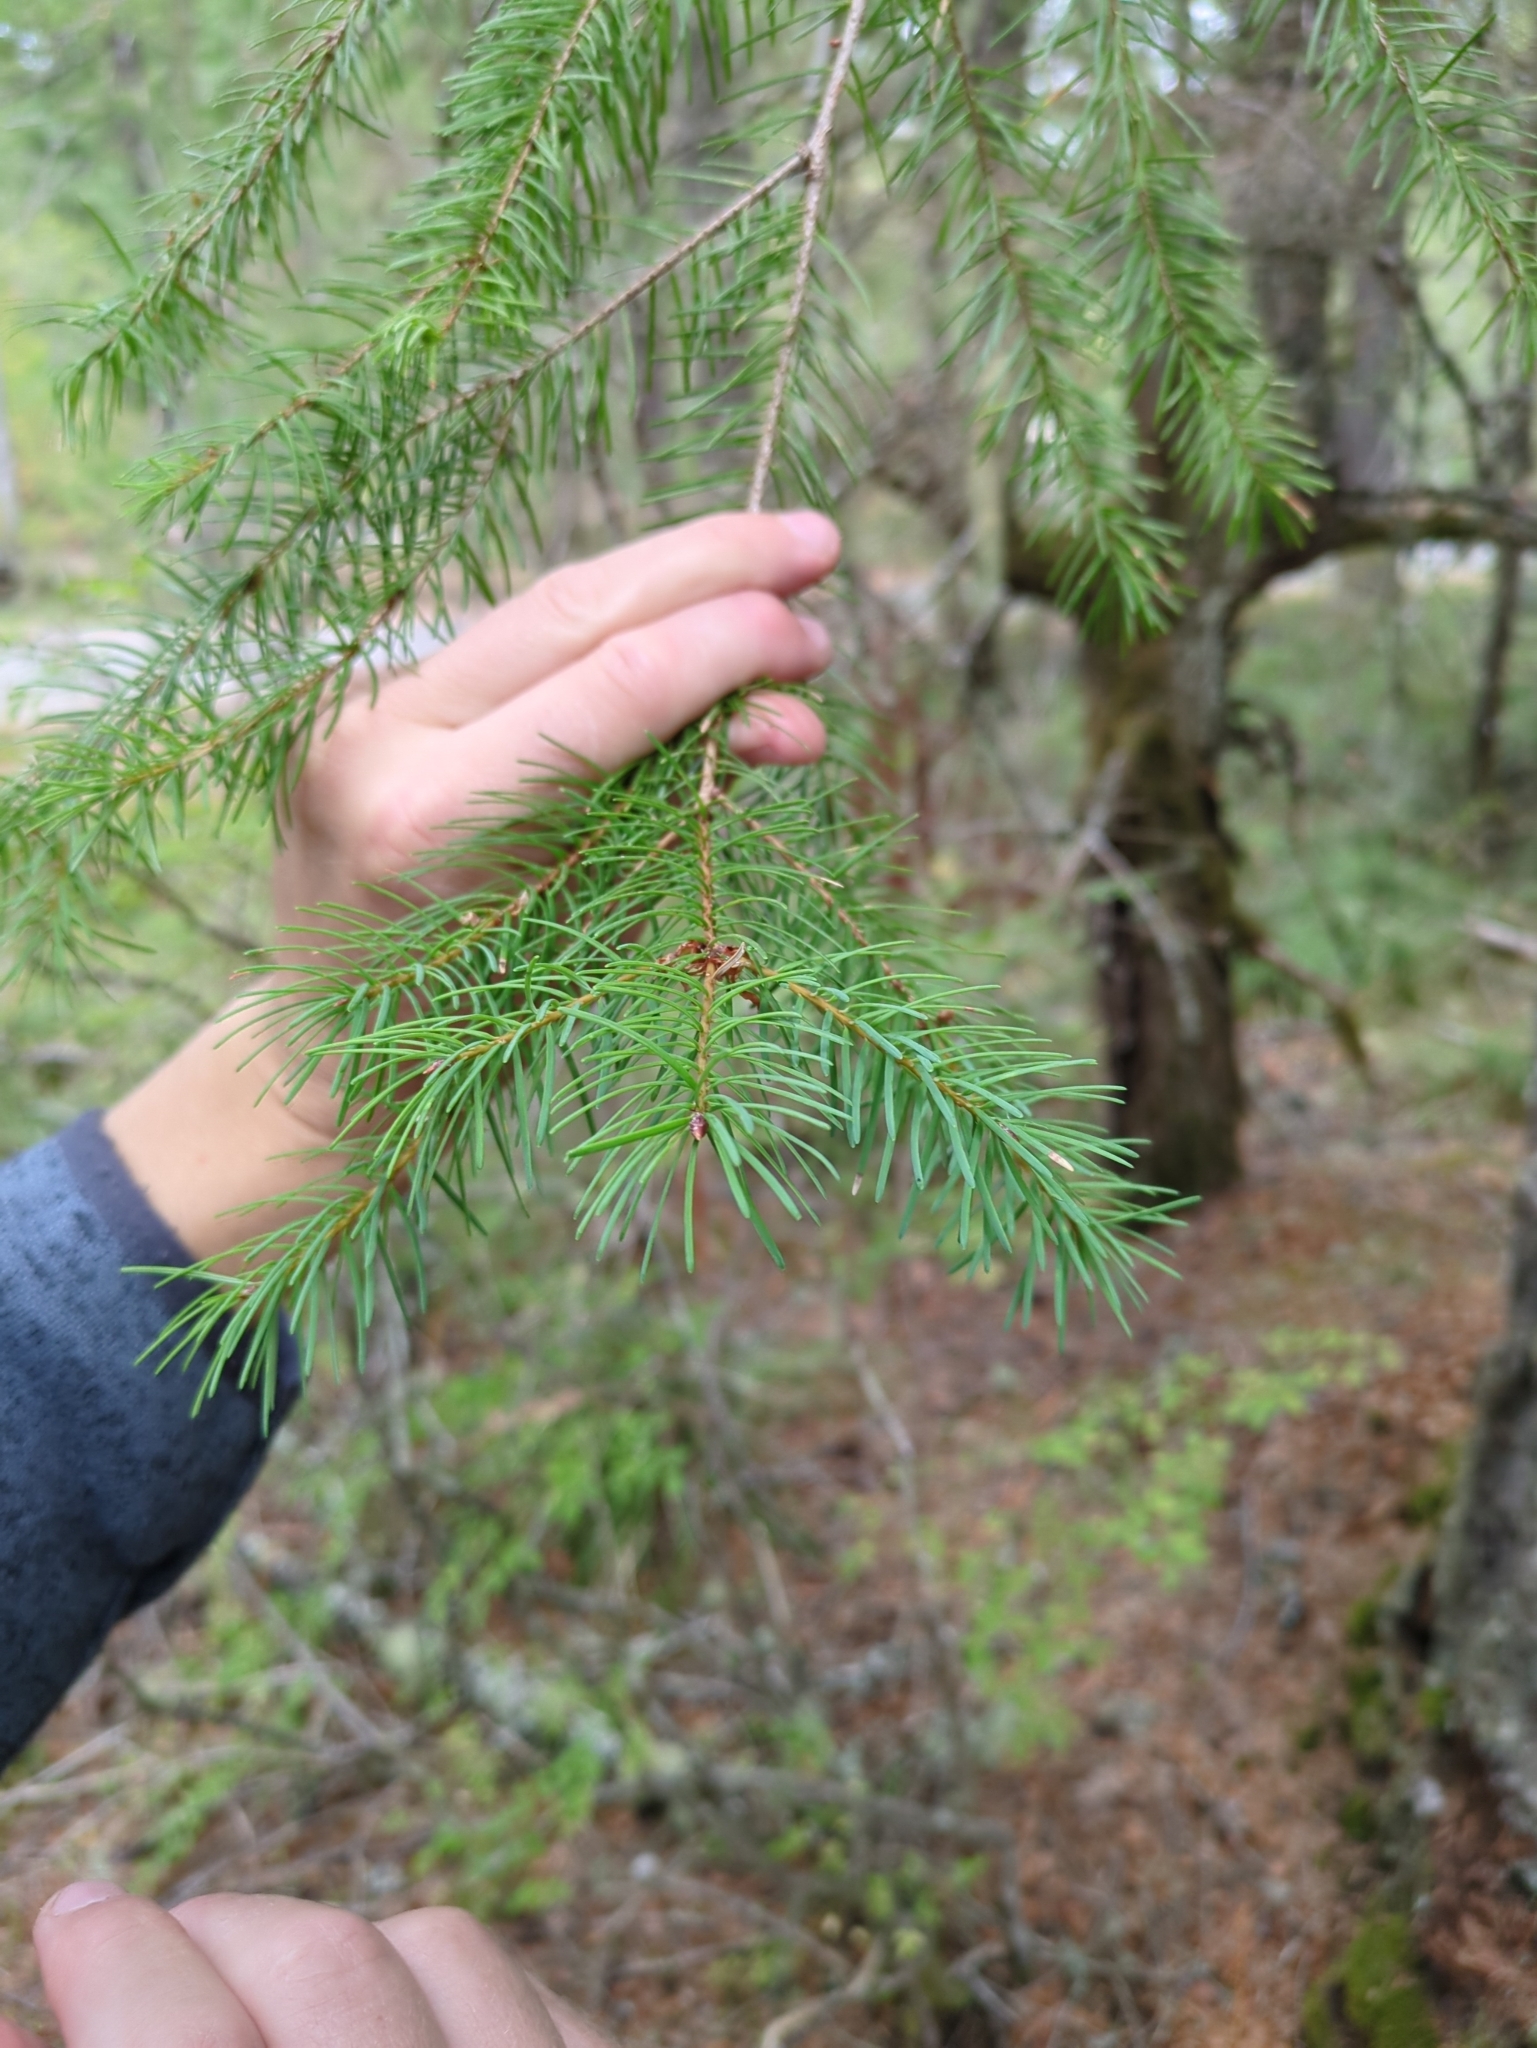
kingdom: Plantae
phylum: Tracheophyta
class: Pinopsida
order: Pinales
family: Pinaceae
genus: Pseudotsuga
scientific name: Pseudotsuga menziesii
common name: Douglas fir
